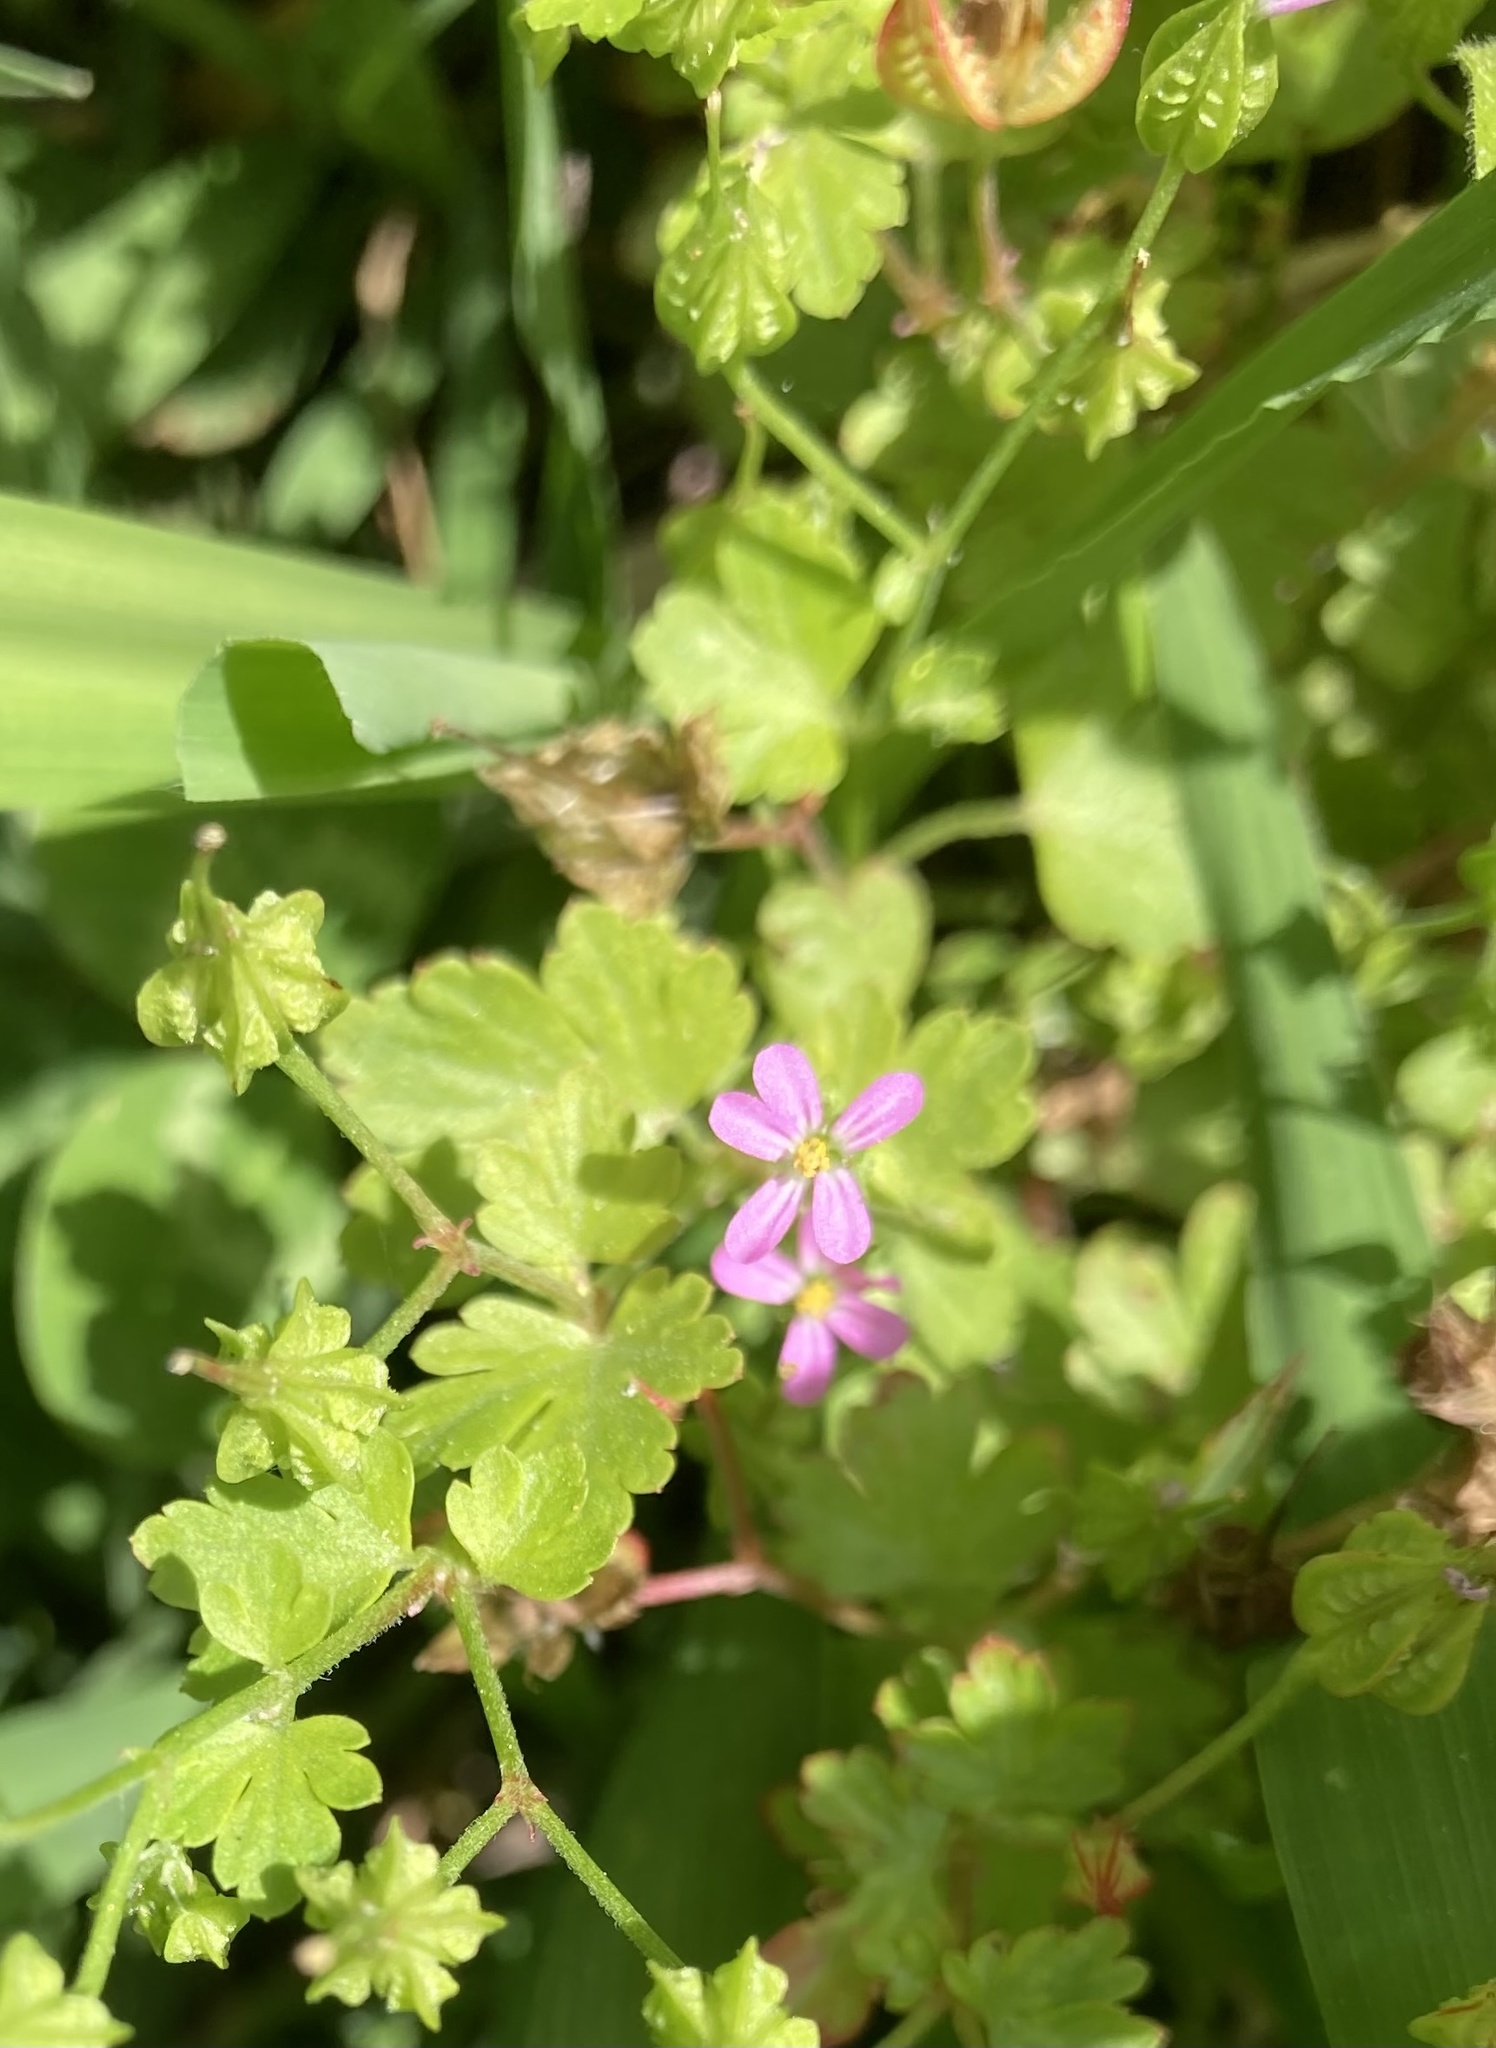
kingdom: Plantae
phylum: Tracheophyta
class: Magnoliopsida
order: Geraniales
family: Geraniaceae
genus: Geranium
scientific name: Geranium lucidum
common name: Shining crane's-bill
